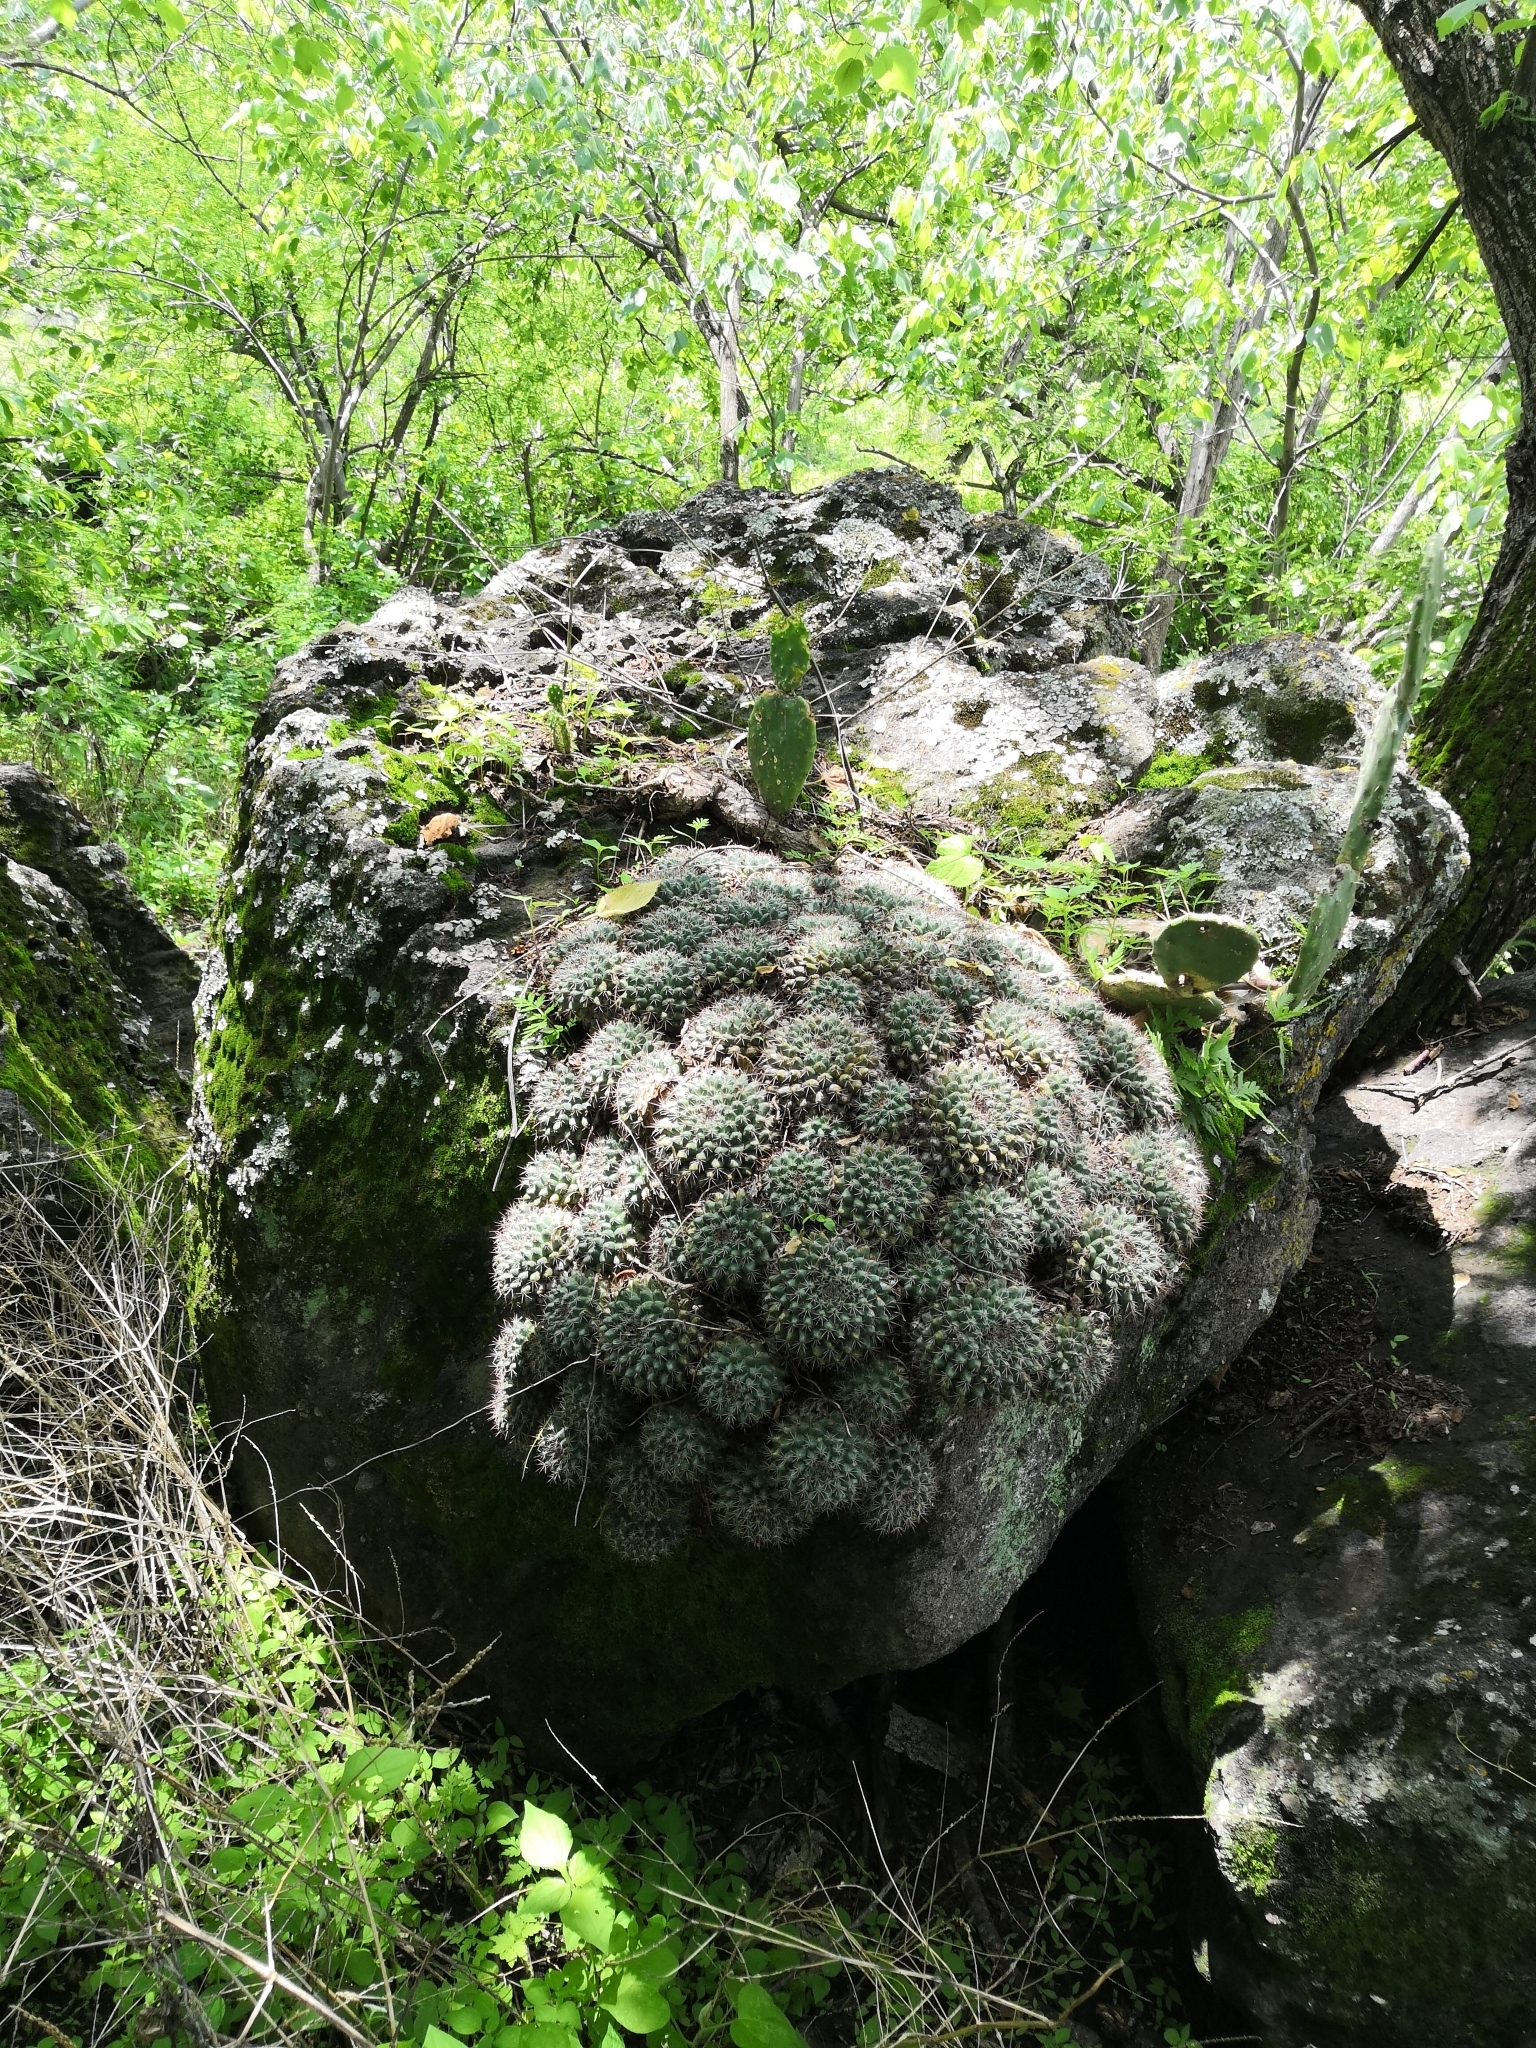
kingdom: Plantae
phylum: Tracheophyta
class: Magnoliopsida
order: Caryophyllales
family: Cactaceae
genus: Mammillaria
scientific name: Mammillaria scrippsiana
